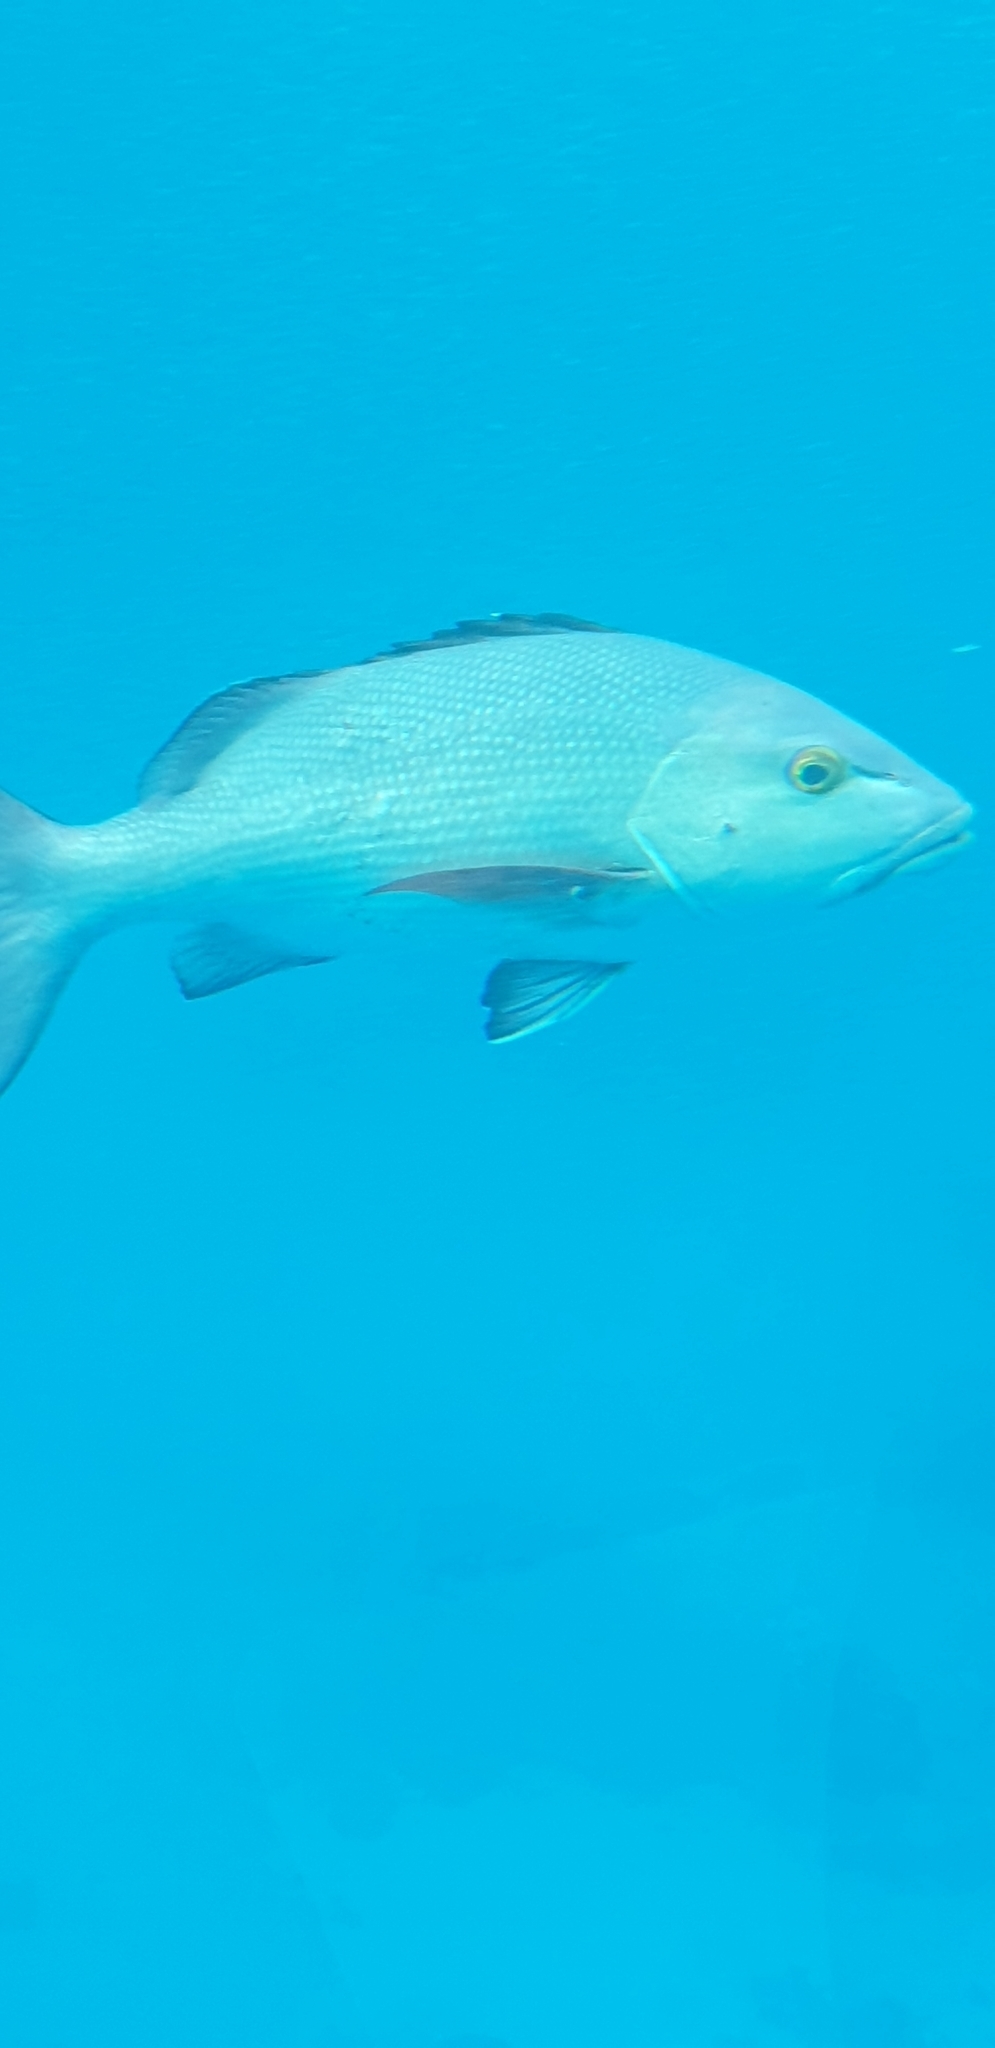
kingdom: Animalia
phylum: Chordata
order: Perciformes
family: Lutjanidae
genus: Lutjanus
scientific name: Lutjanus bohar
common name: Red bass
